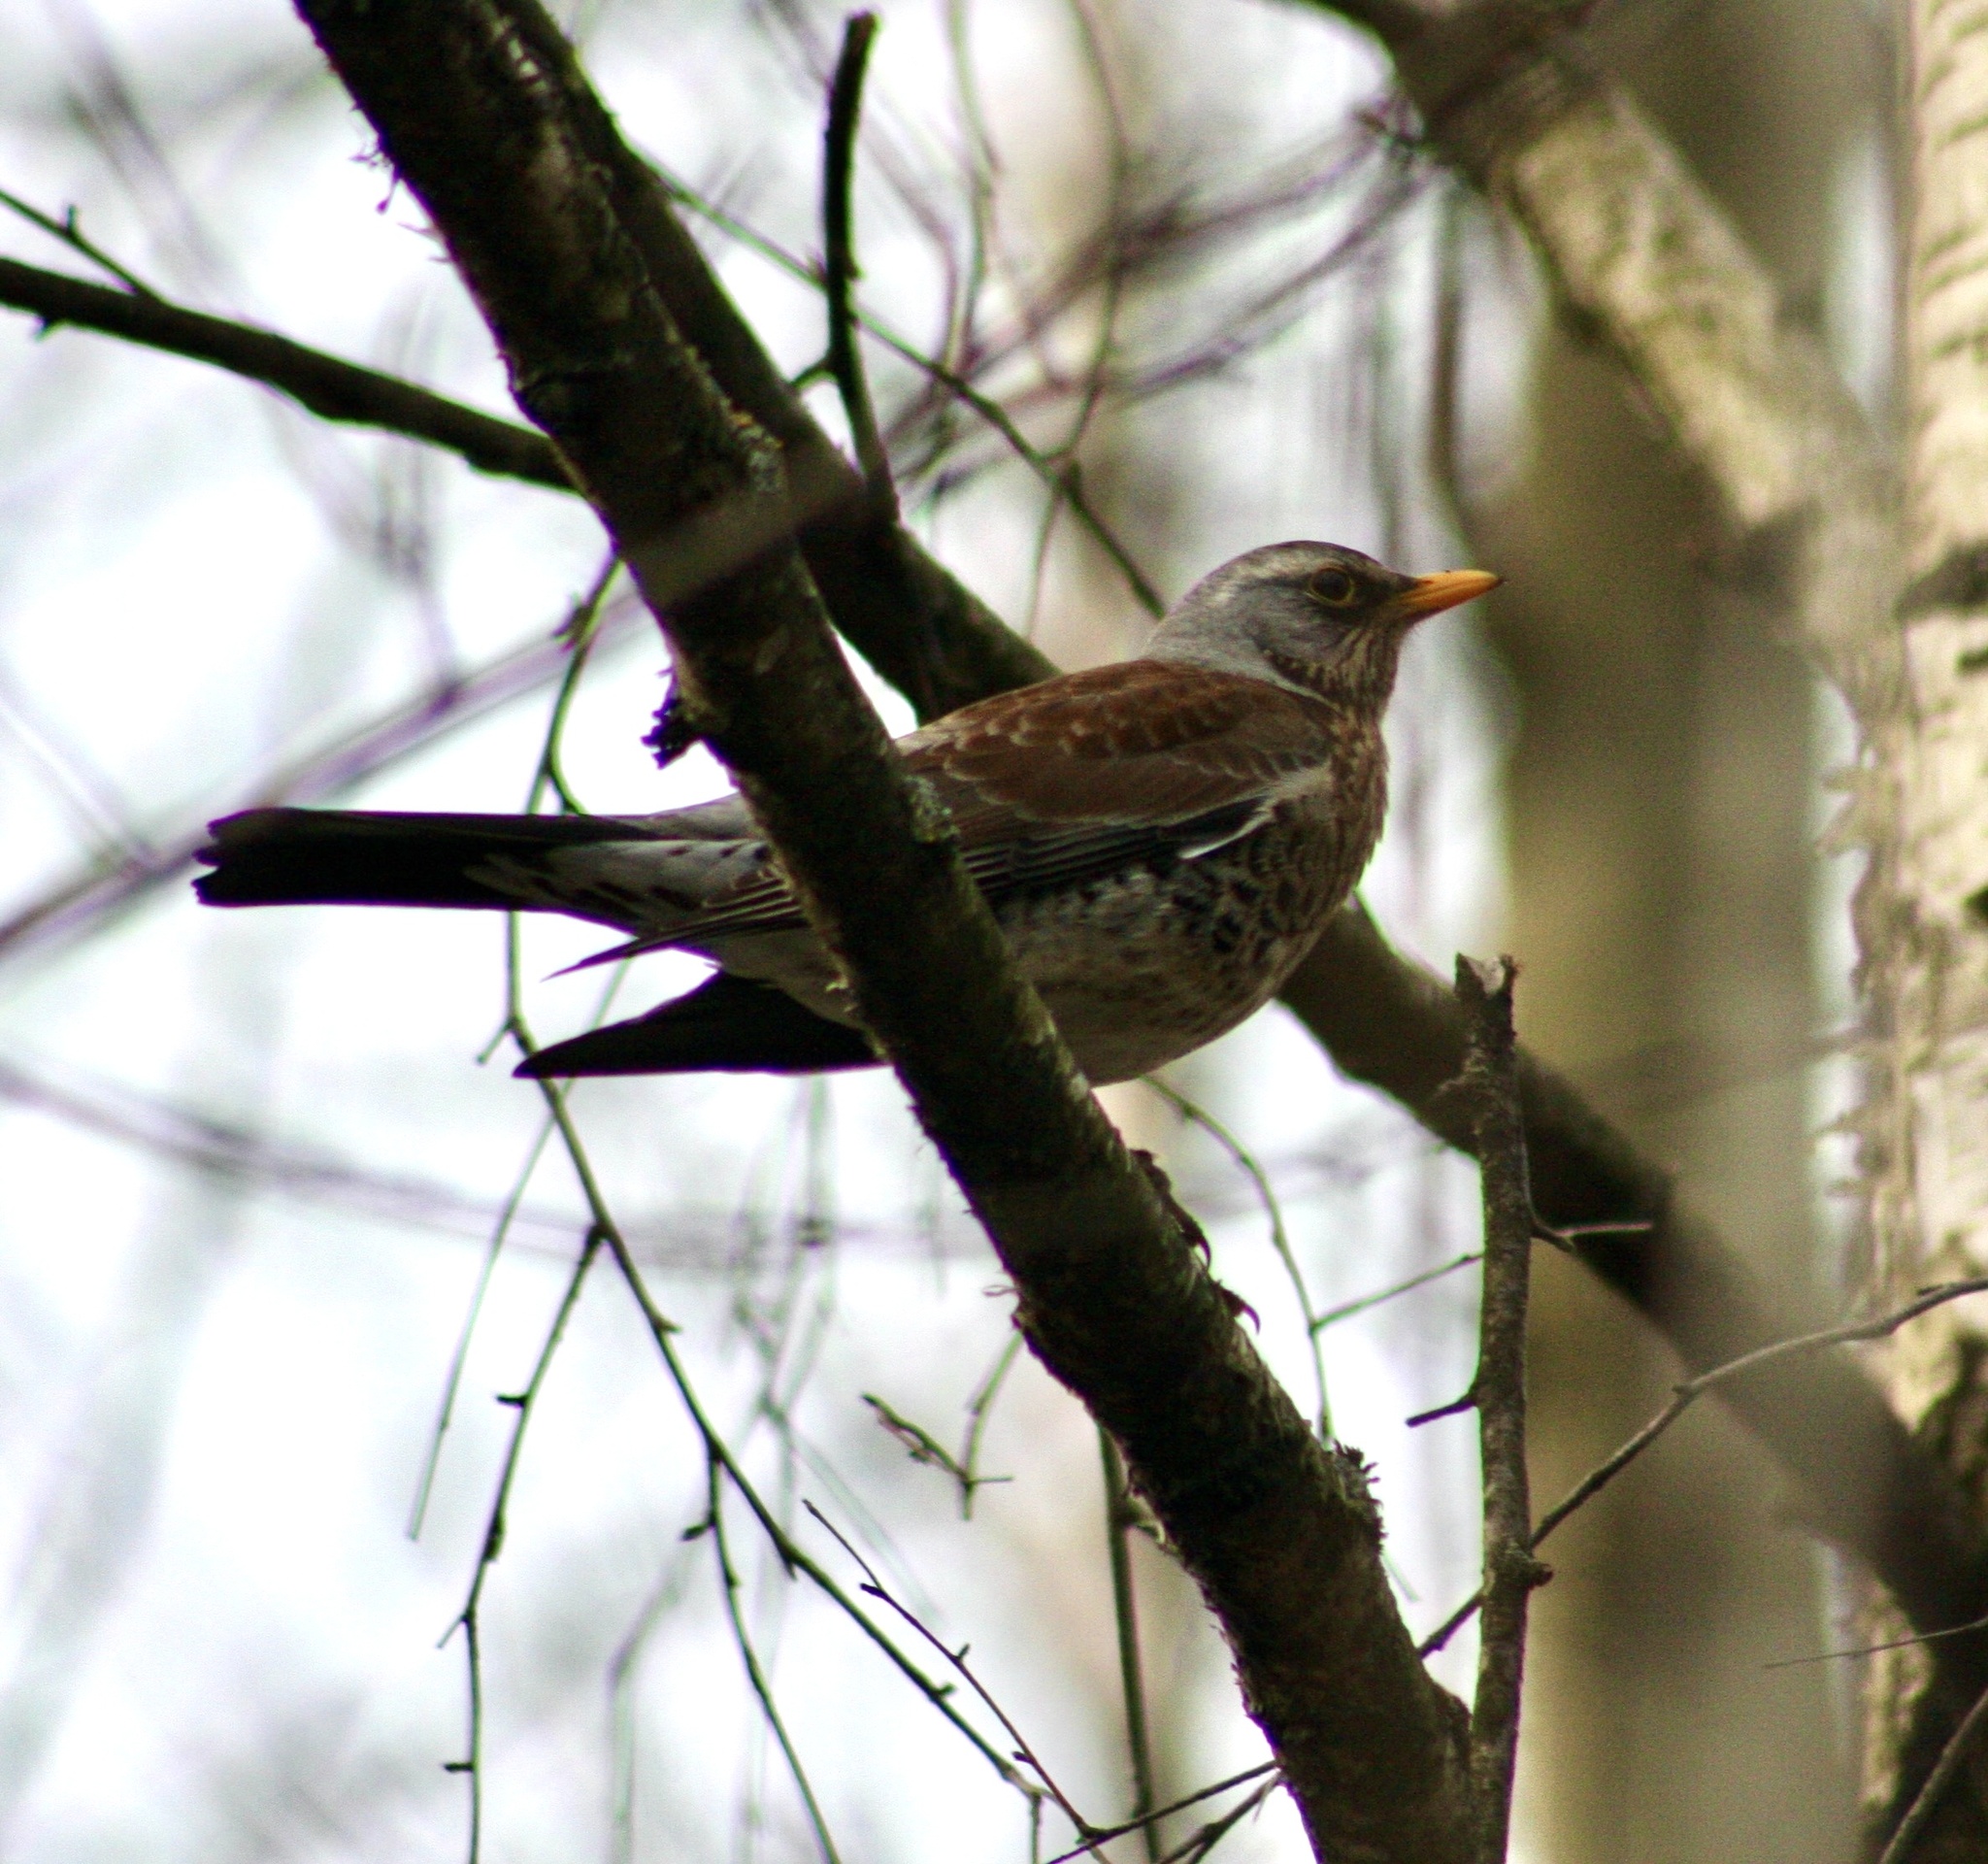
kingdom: Animalia
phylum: Chordata
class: Aves
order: Passeriformes
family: Turdidae
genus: Turdus
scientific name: Turdus pilaris
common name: Fieldfare
